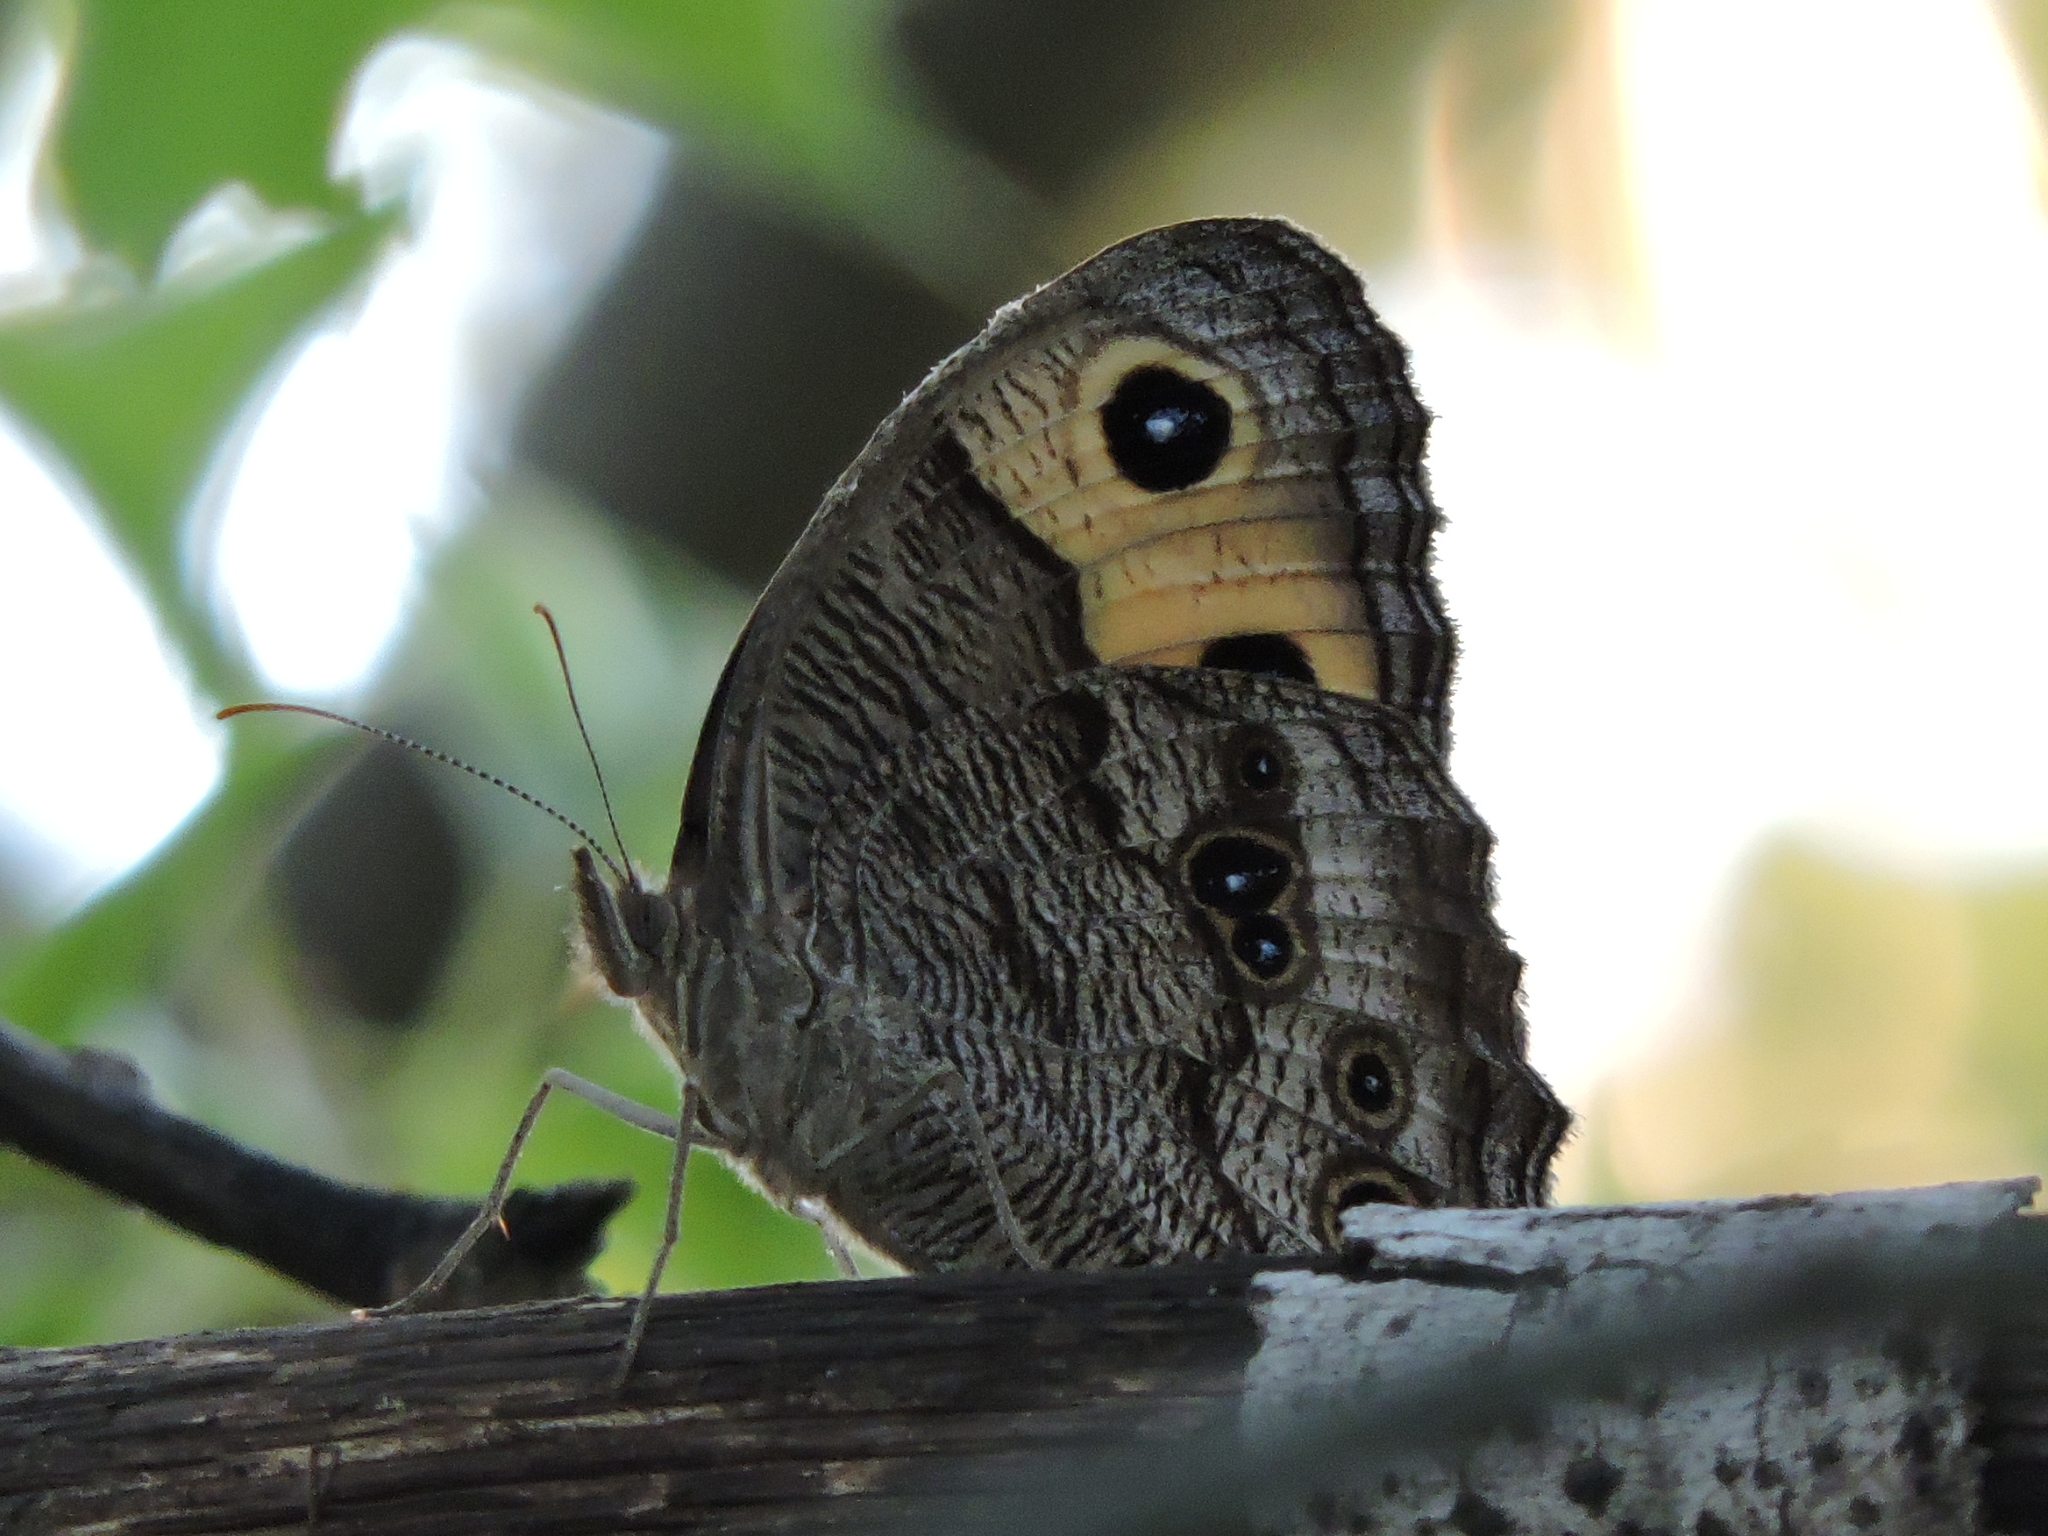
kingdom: Animalia
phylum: Arthropoda
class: Insecta
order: Lepidoptera
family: Nymphalidae
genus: Cercyonis
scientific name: Cercyonis pegala
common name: Common wood-nymph
